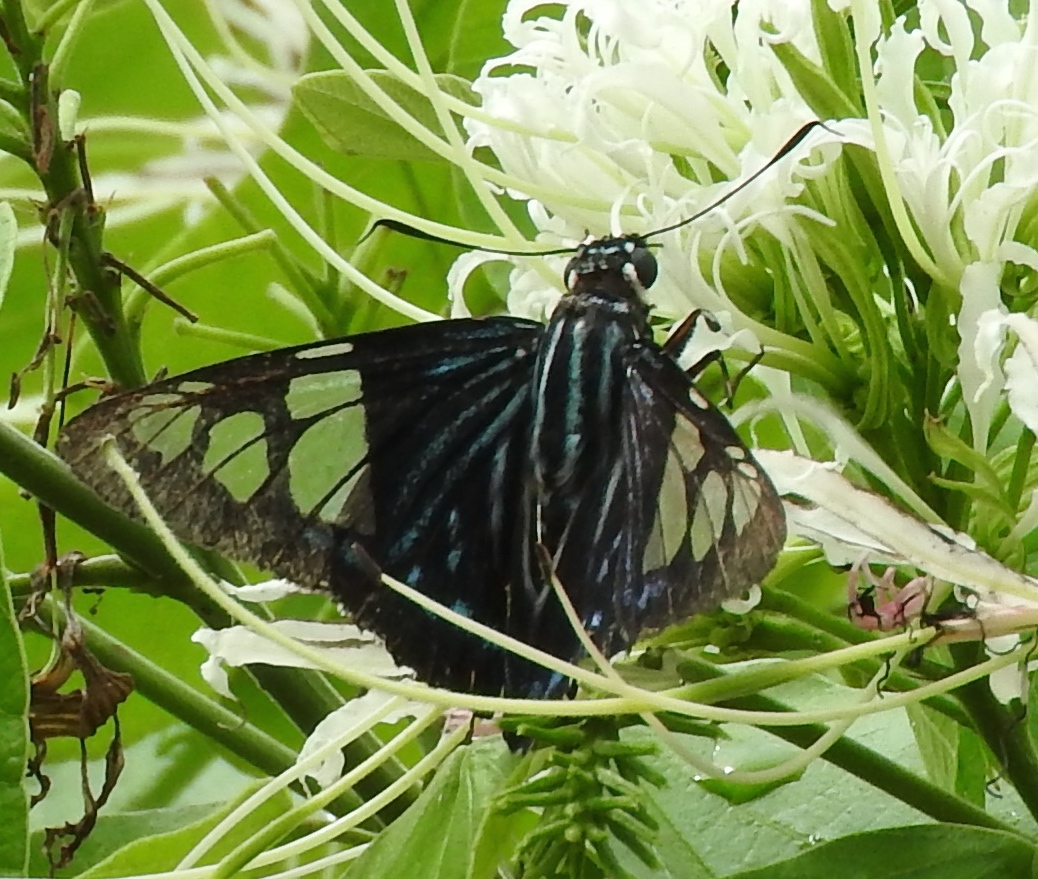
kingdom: Animalia
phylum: Arthropoda
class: Insecta
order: Lepidoptera
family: Hesperiidae
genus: Phocides
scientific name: Phocides pigmalion
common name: Mangrove skipper
